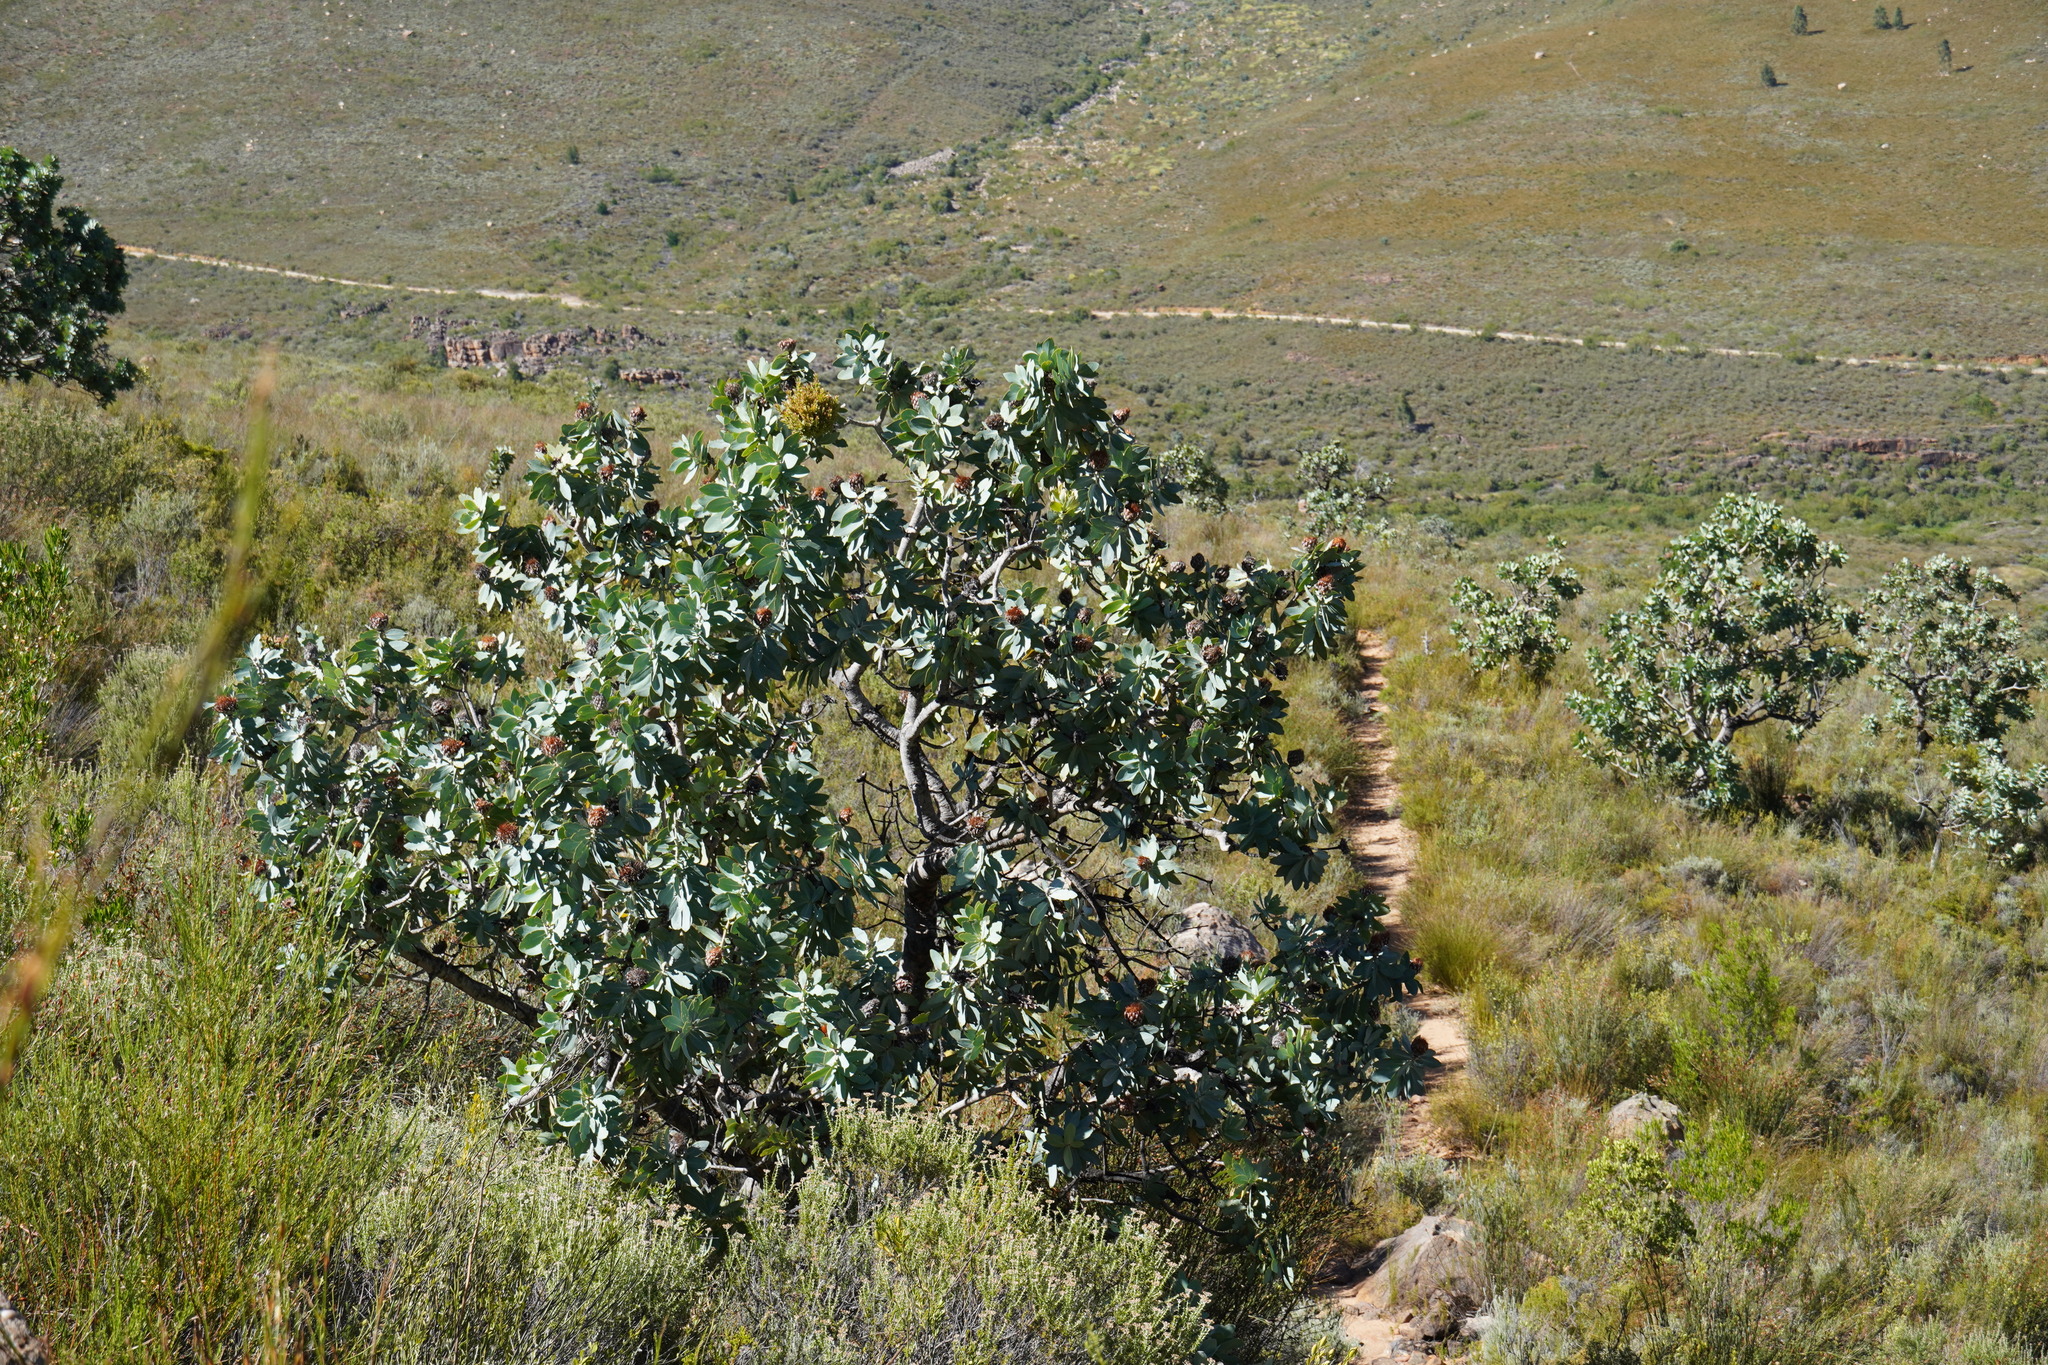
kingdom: Bacteria
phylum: Firmicutes
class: Bacilli
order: Acholeplasmatales
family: Acholeplasmataceae
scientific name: Acholeplasmataceae
